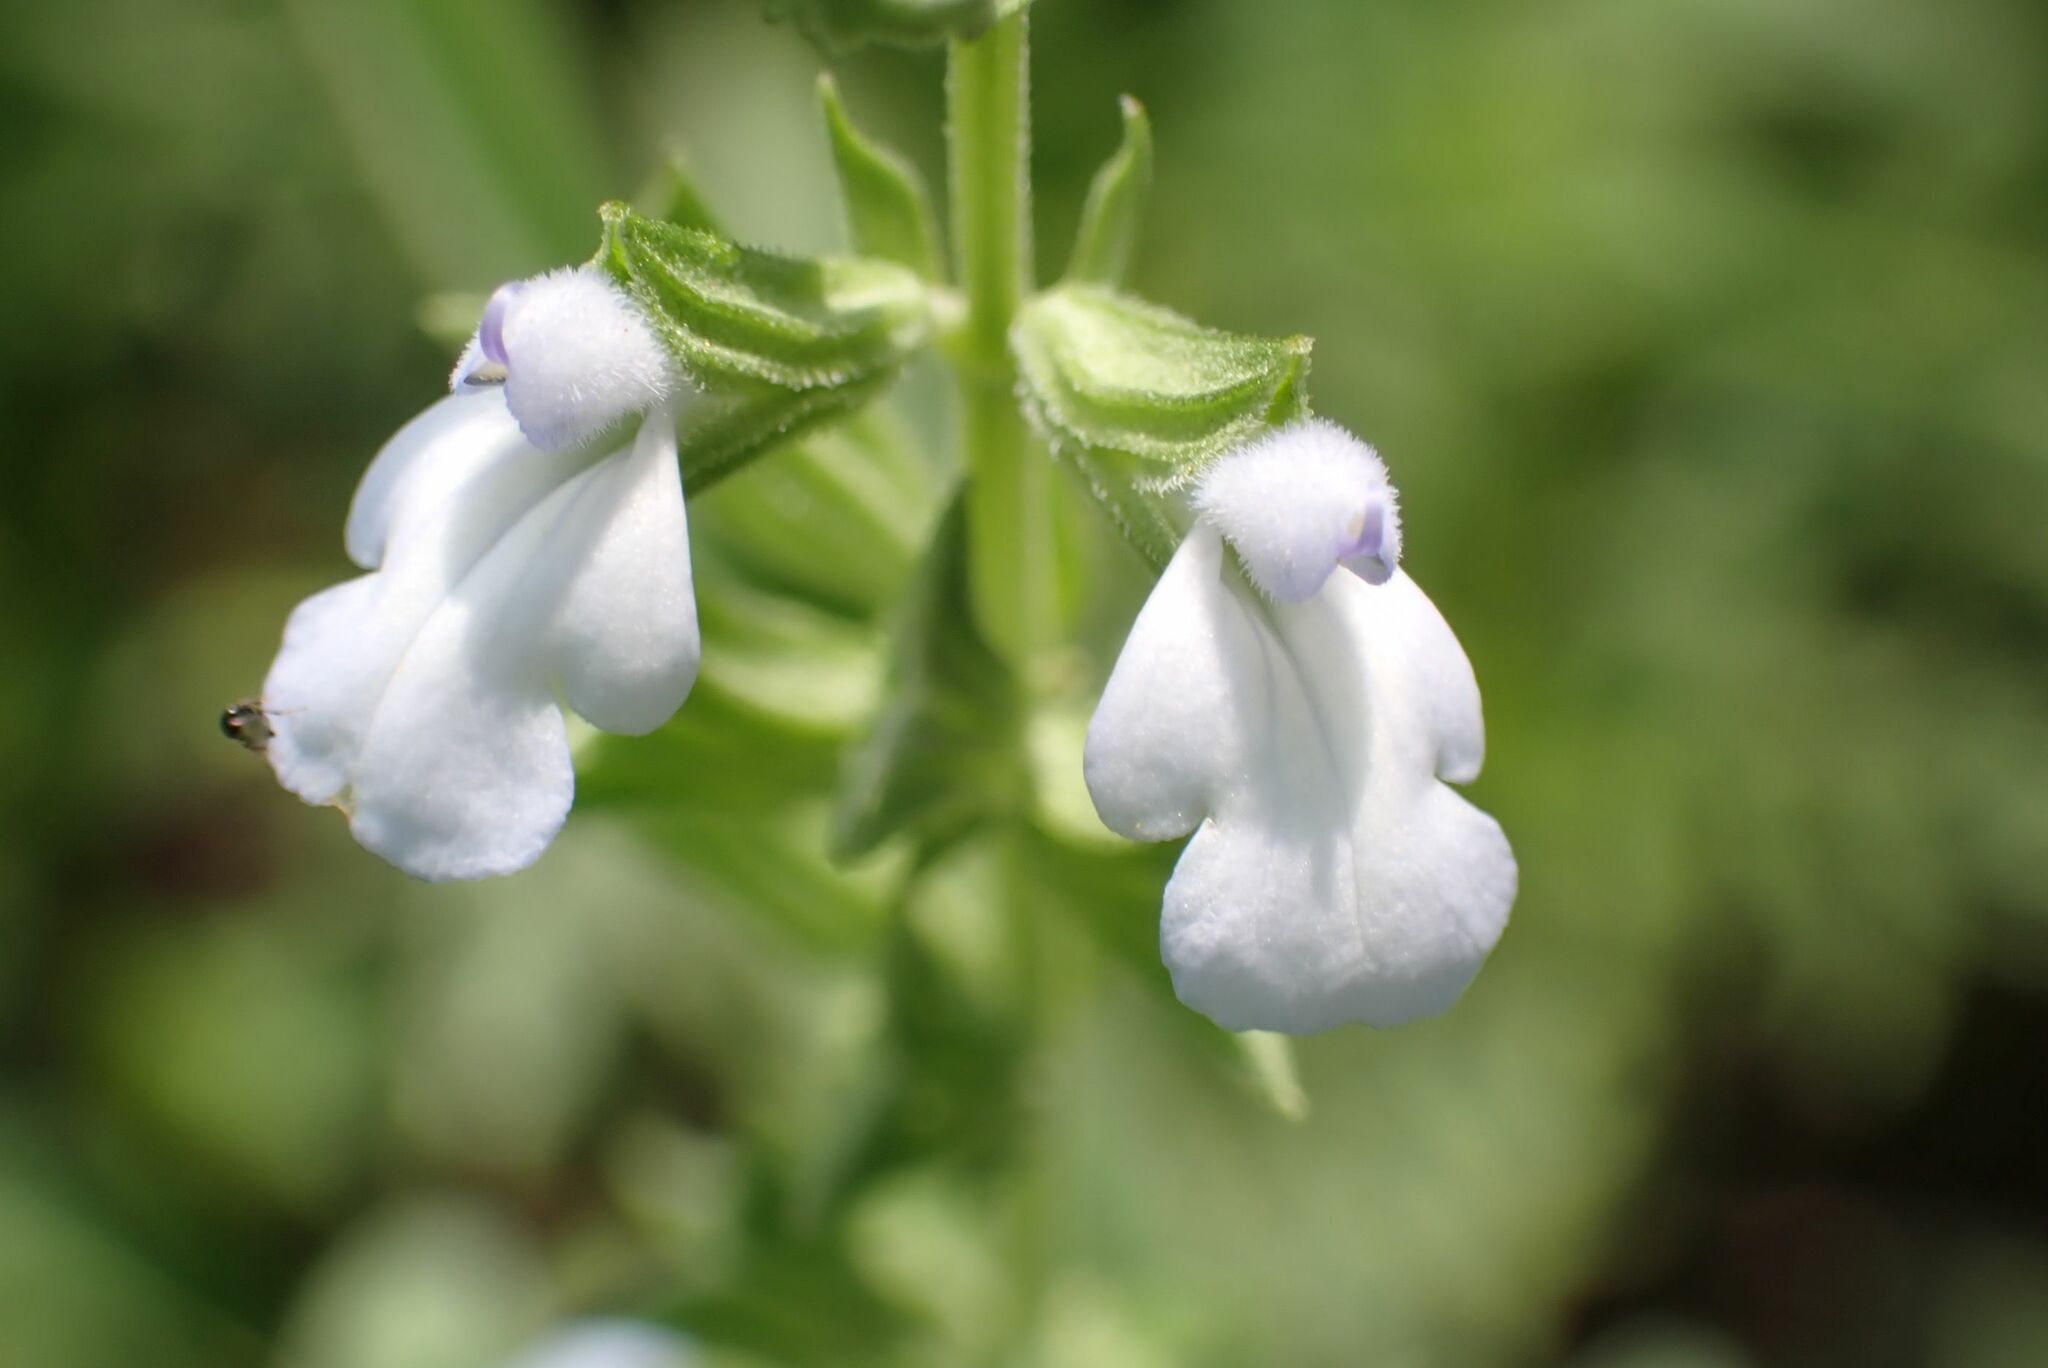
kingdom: Plantae
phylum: Tracheophyta
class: Magnoliopsida
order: Lamiales
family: Lamiaceae
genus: Salvia
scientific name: Salvia reflexa
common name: Mintweed
